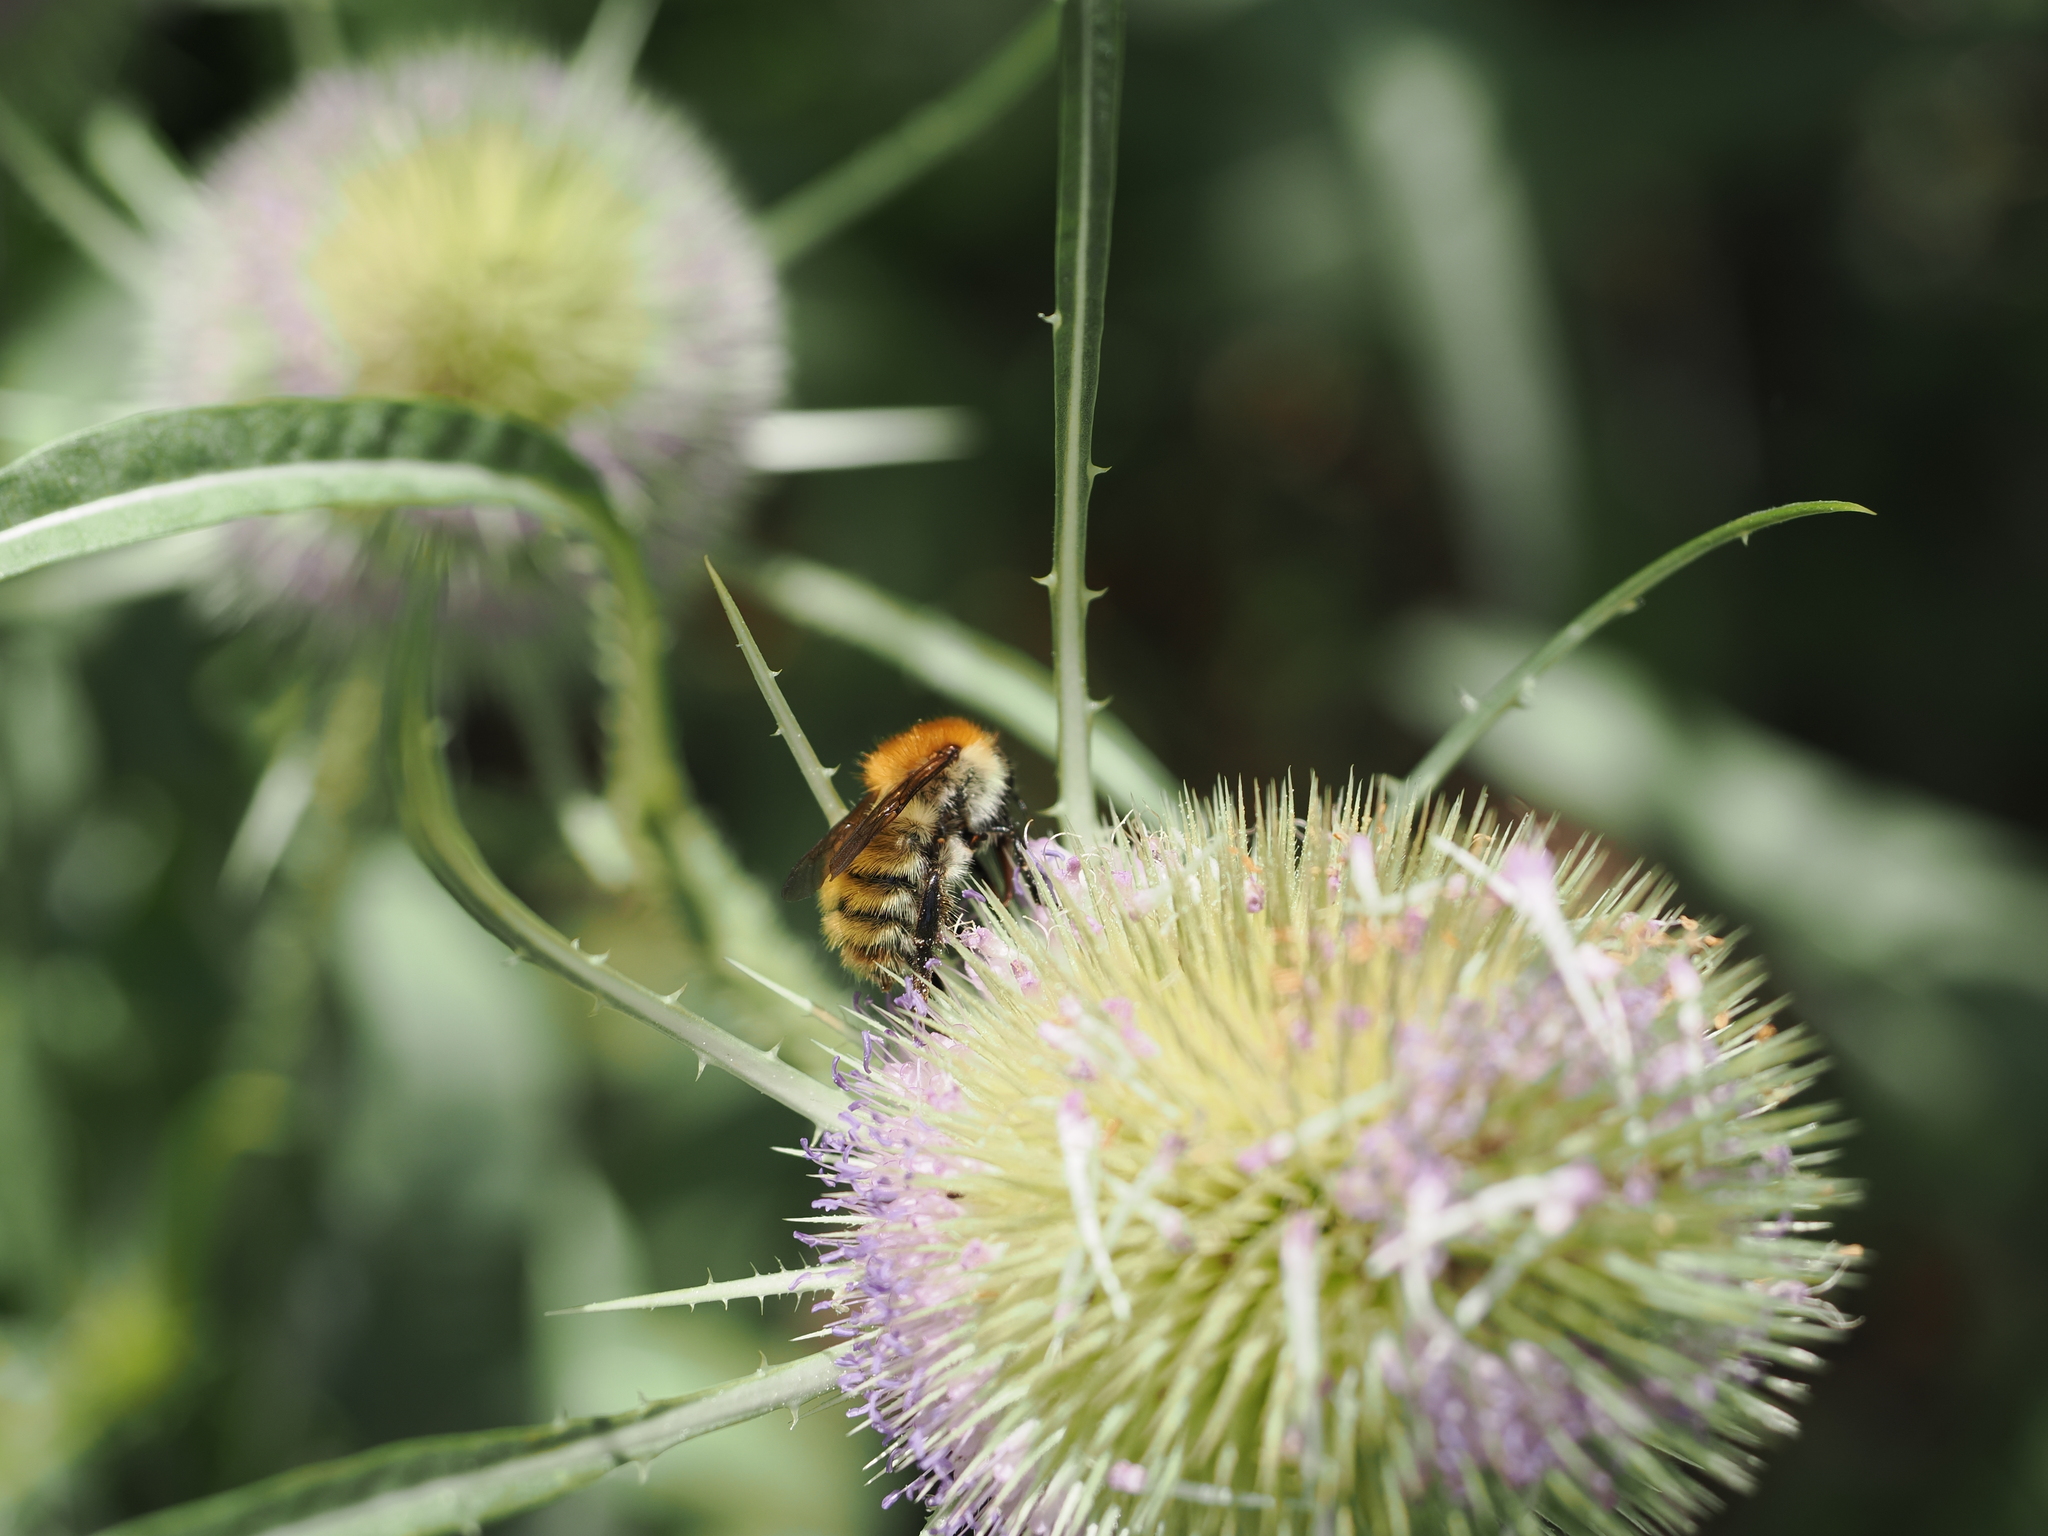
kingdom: Animalia
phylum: Arthropoda
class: Insecta
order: Hymenoptera
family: Apidae
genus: Bombus
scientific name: Bombus pascuorum
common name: Common carder bee
